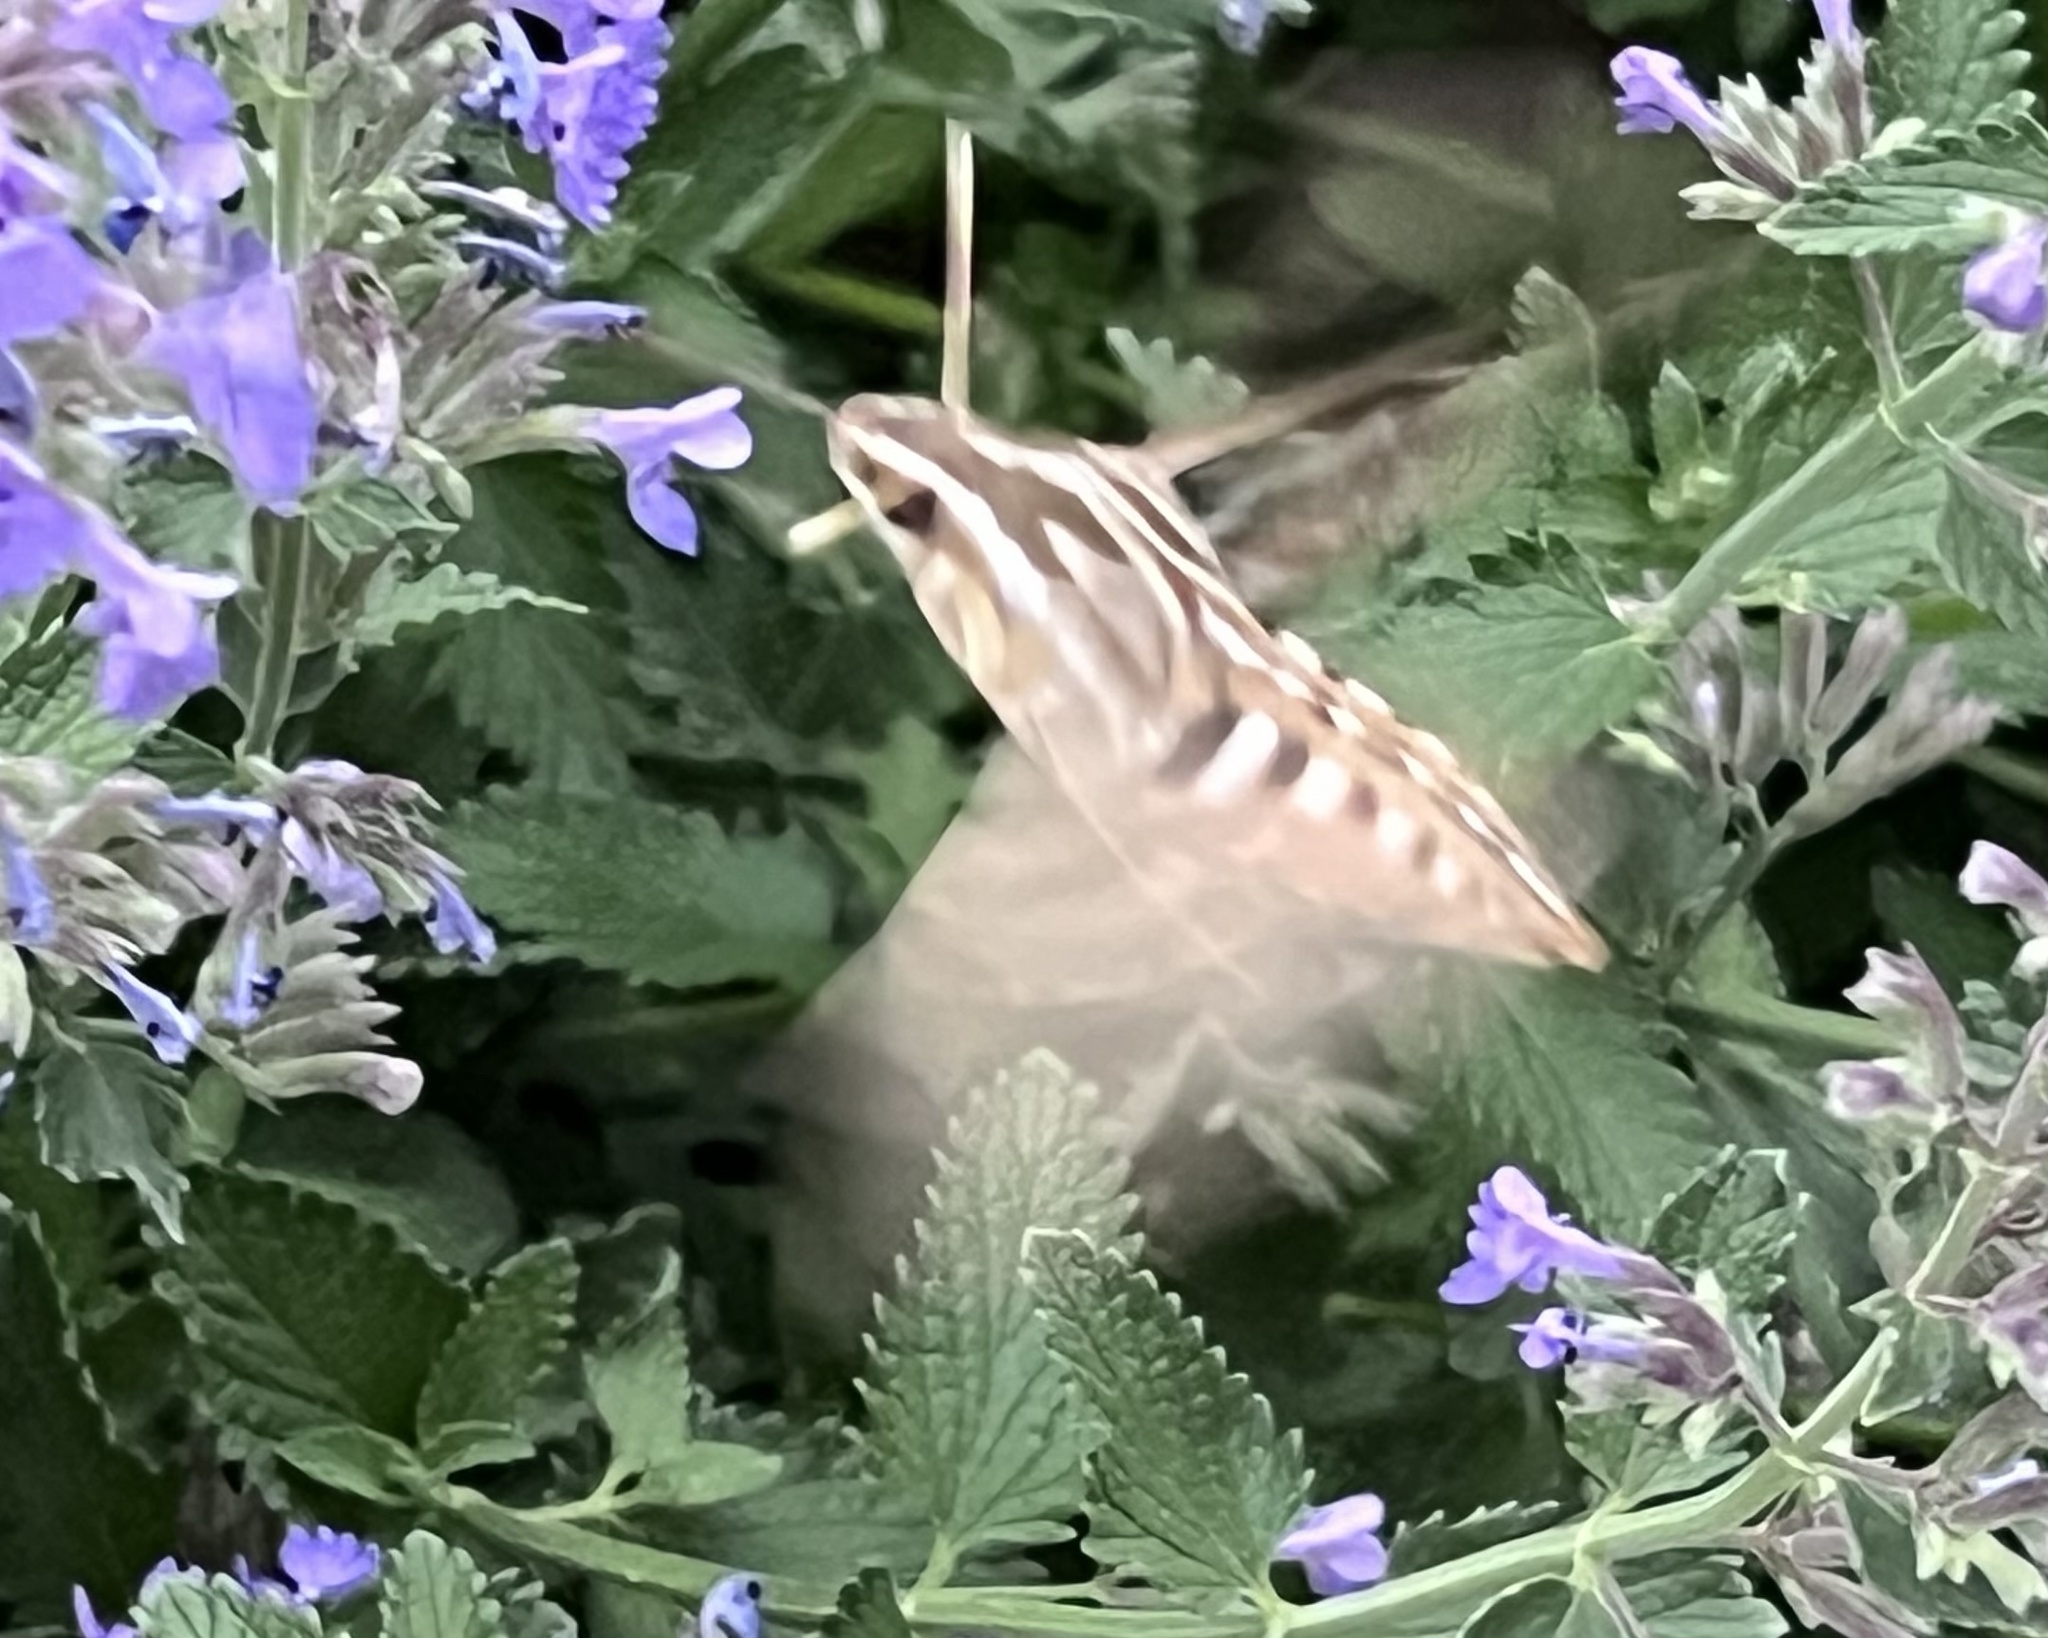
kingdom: Animalia
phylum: Arthropoda
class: Insecta
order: Lepidoptera
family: Sphingidae
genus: Hyles
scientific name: Hyles lineata
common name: White-lined sphinx
